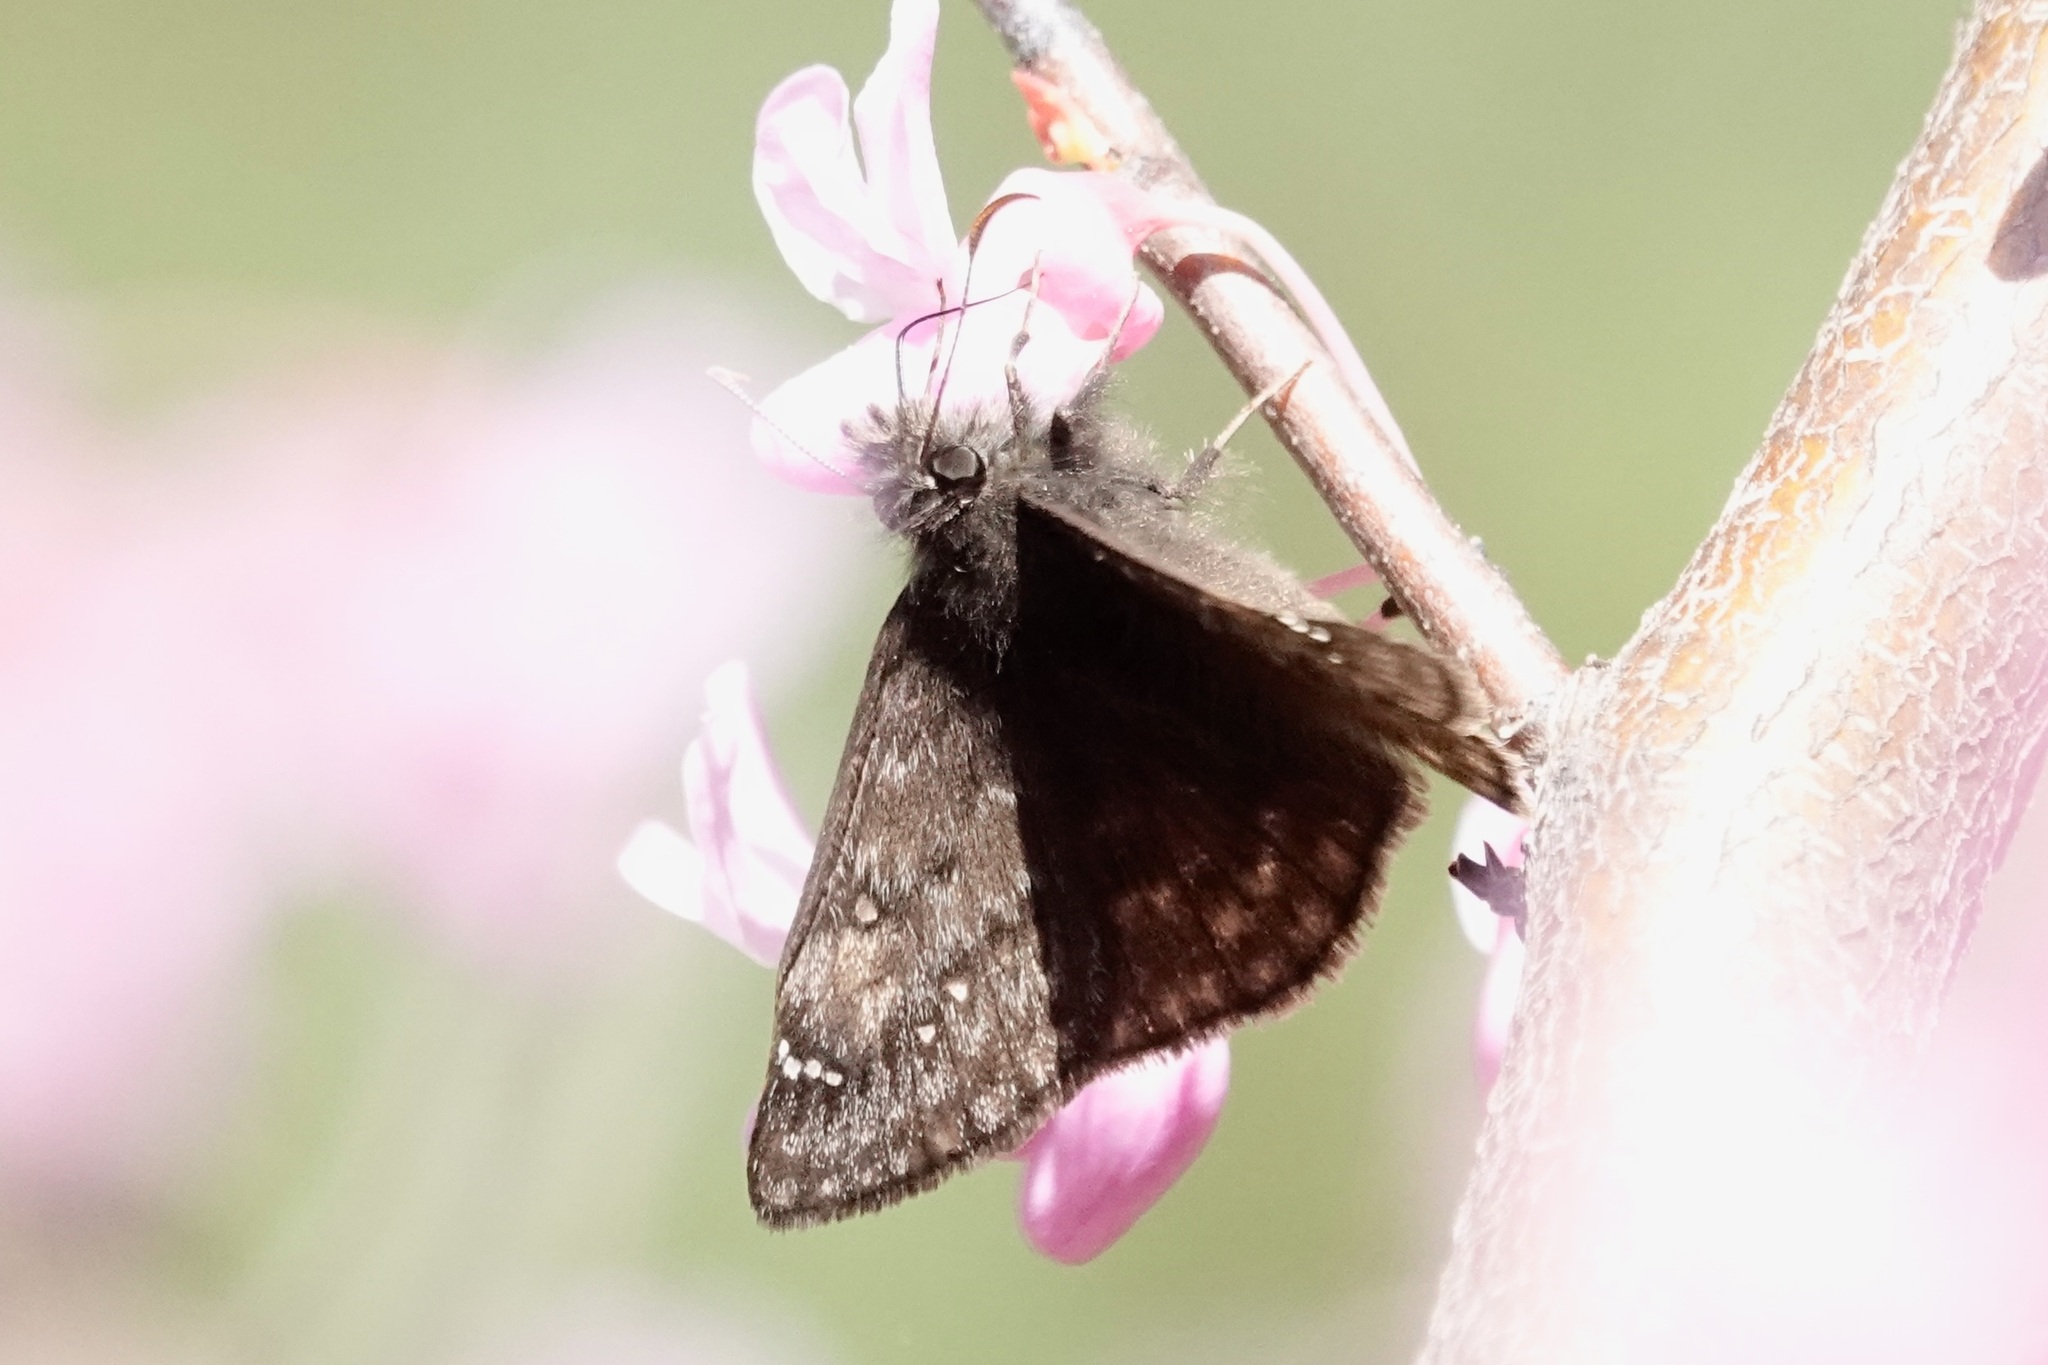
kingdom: Animalia
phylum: Arthropoda
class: Insecta
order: Lepidoptera
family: Hesperiidae
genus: Erynnis
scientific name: Erynnis juvenalis
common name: Juvenal's duskywing
